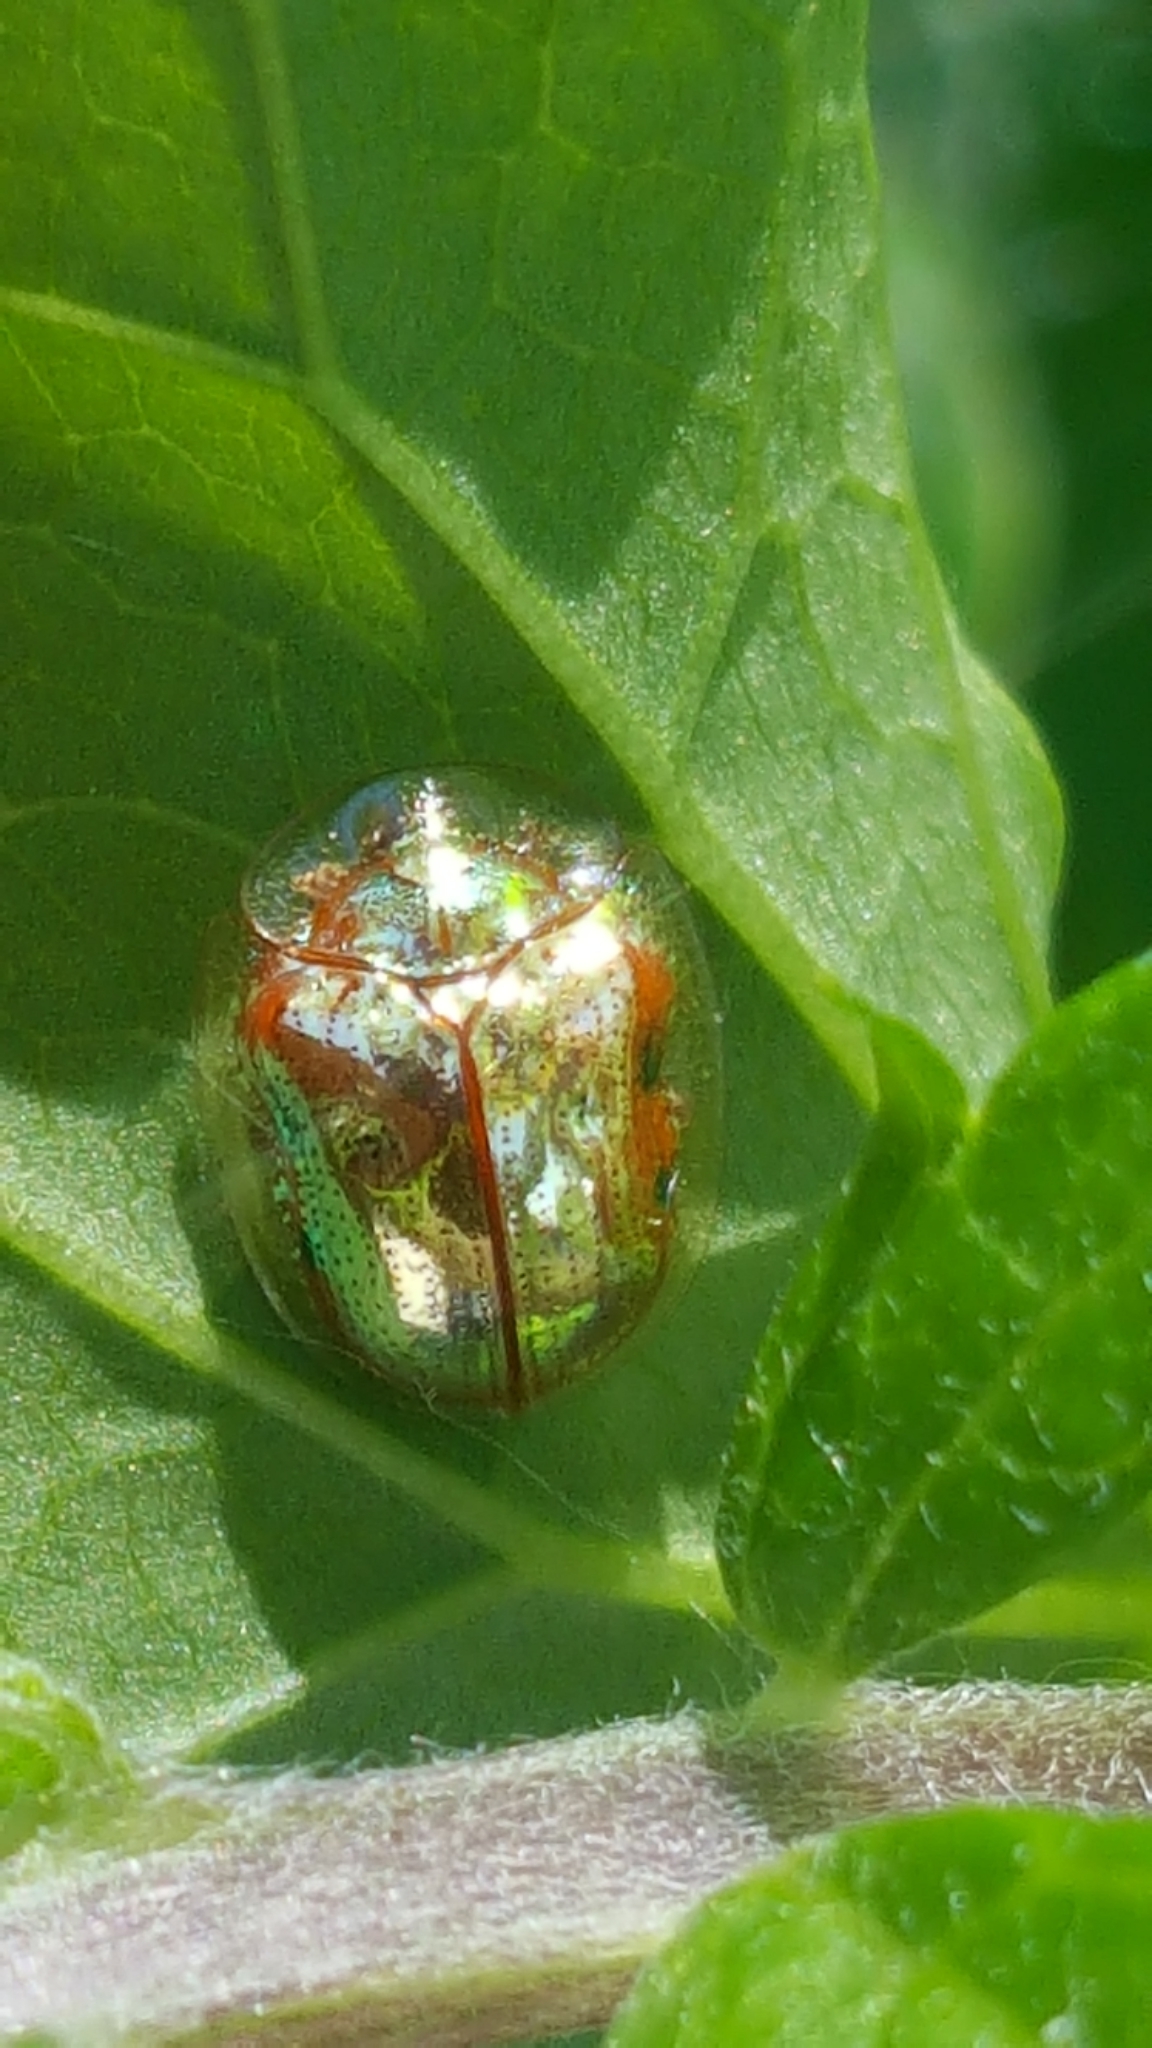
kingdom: Animalia
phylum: Arthropoda
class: Insecta
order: Coleoptera
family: Chrysomelidae
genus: Charidotella
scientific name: Charidotella sexpunctata
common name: Golden tortoise beetle
